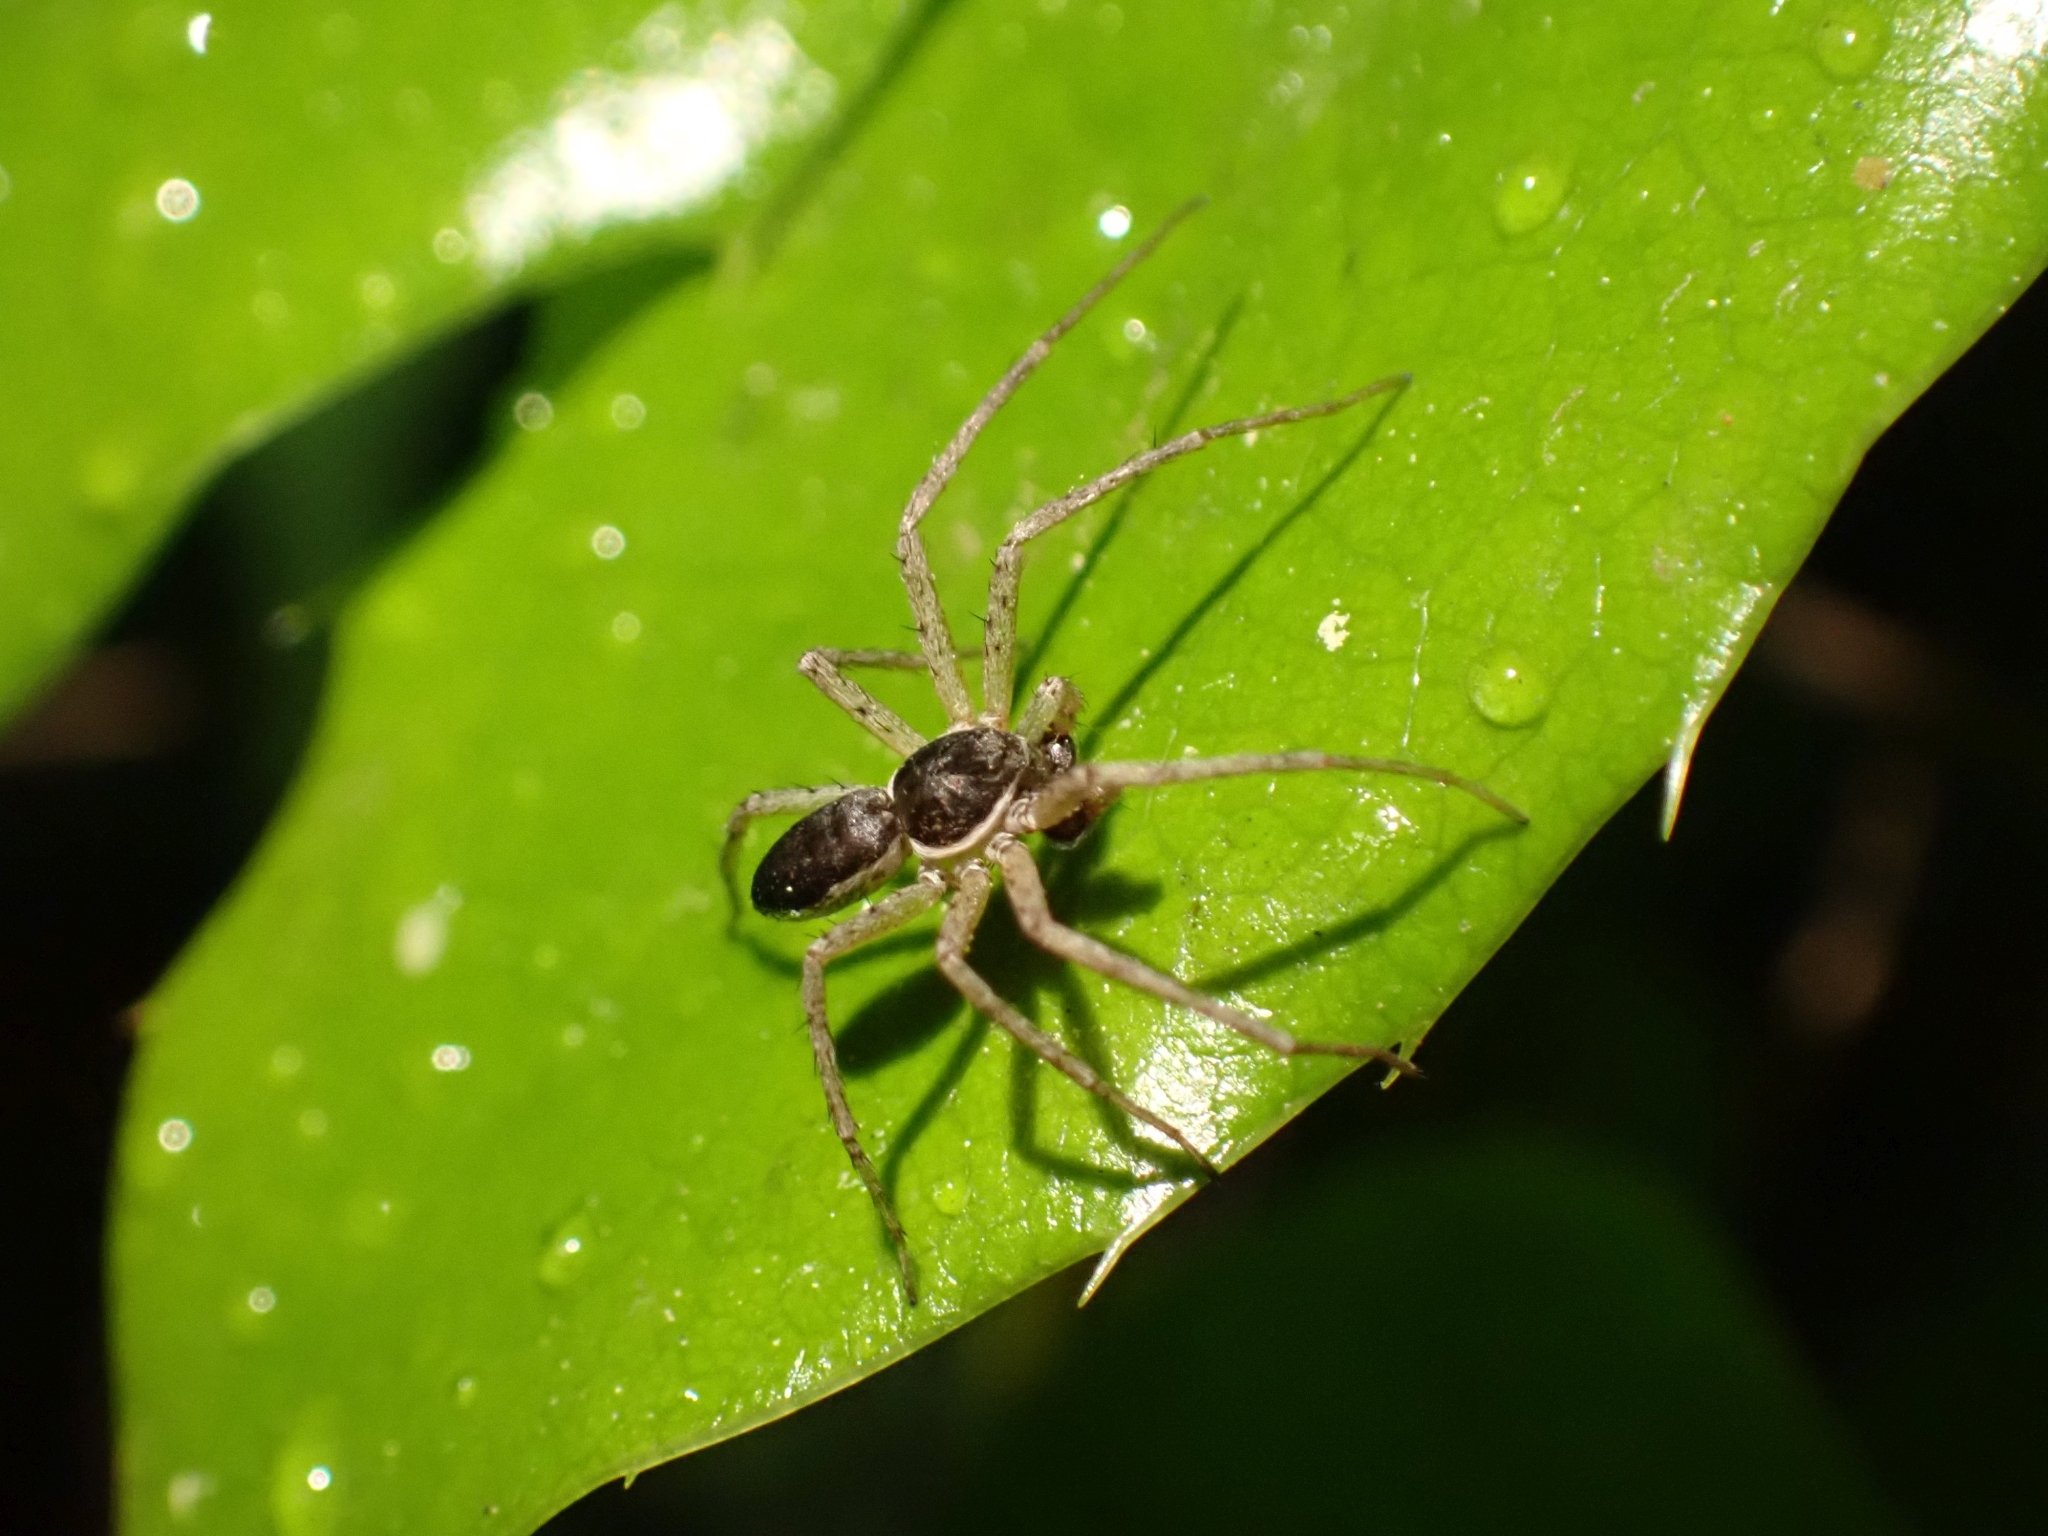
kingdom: Animalia
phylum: Arthropoda
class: Arachnida
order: Araneae
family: Philodromidae
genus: Philodromus
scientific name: Philodromus dispar
